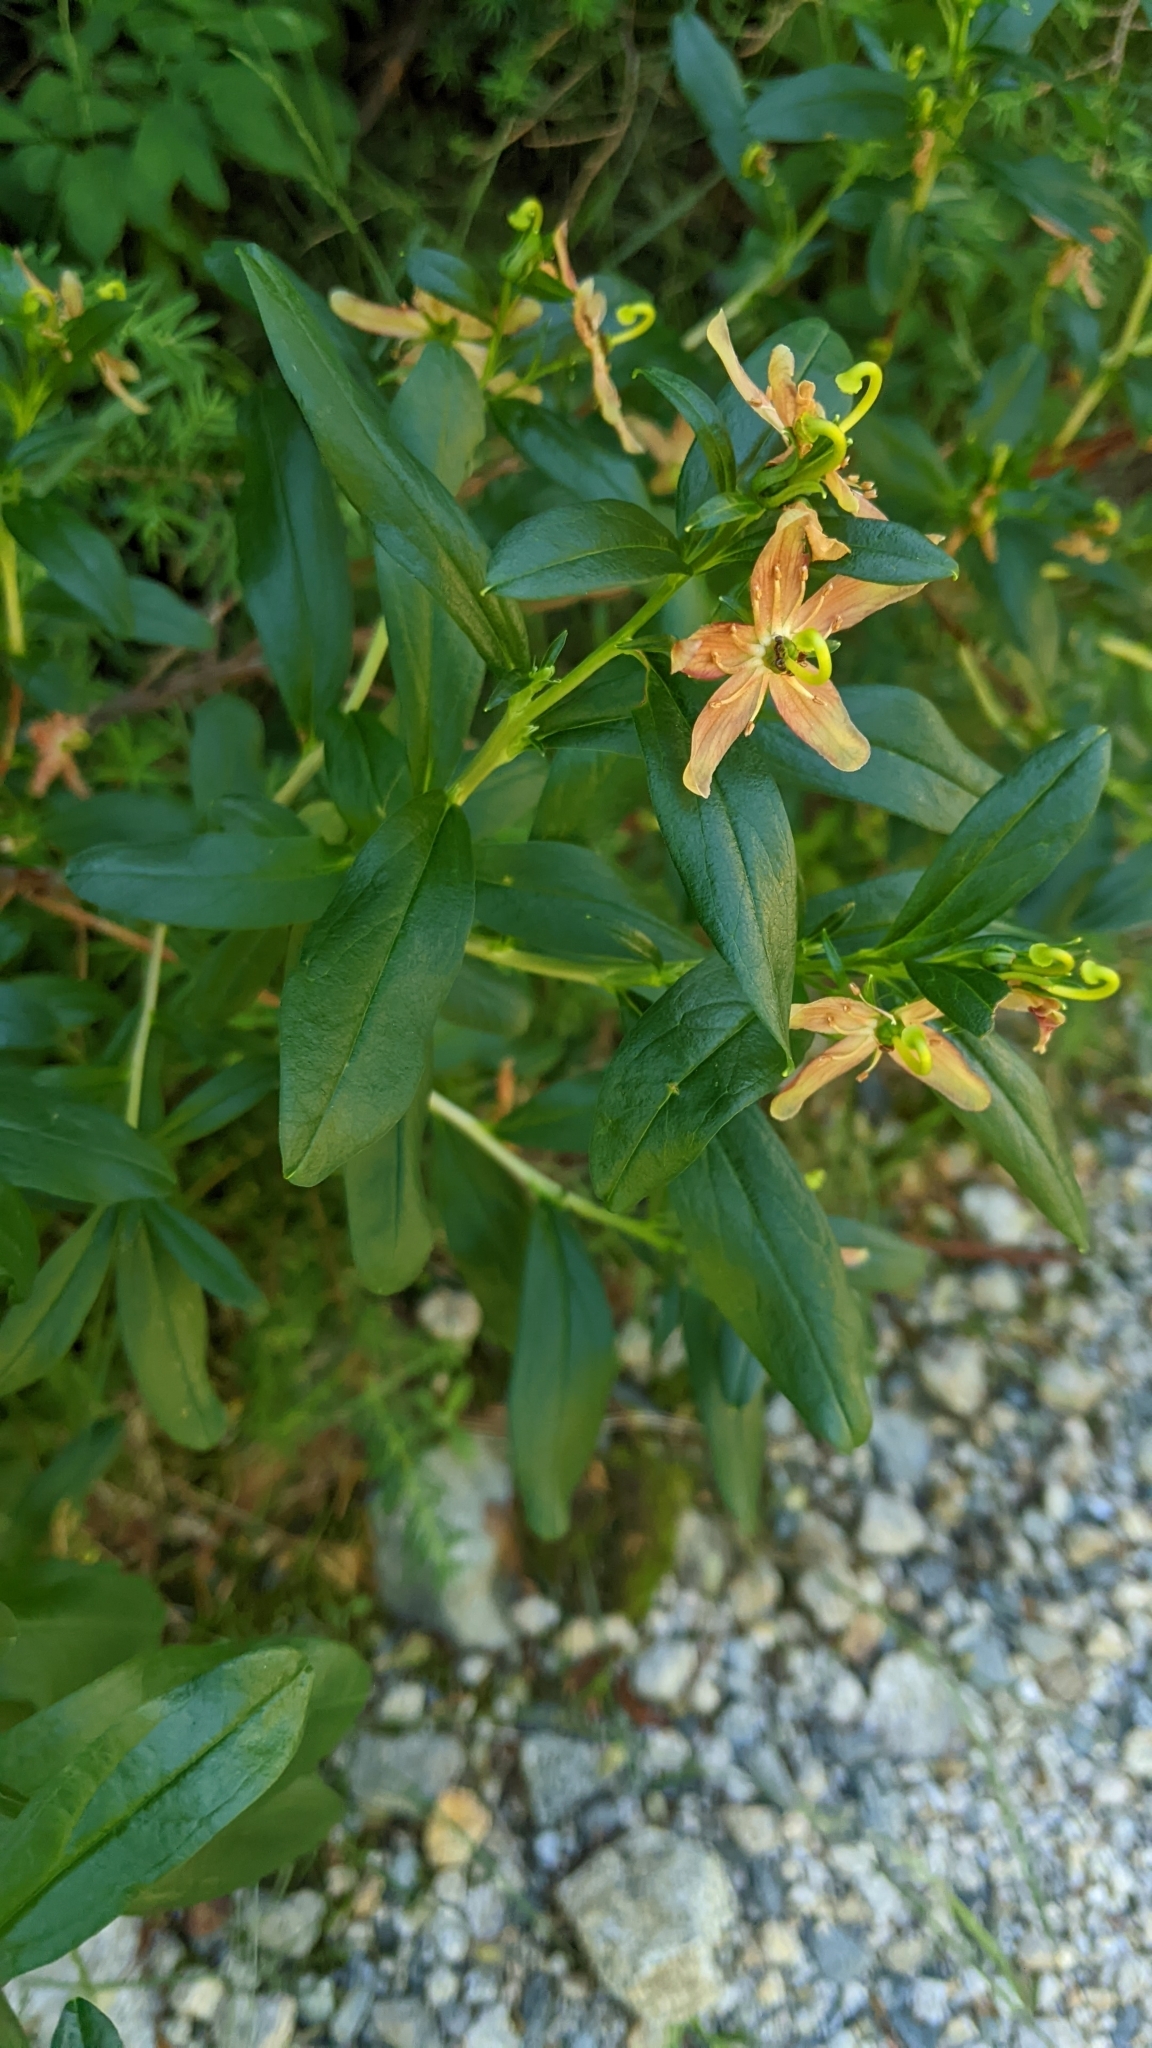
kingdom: Plantae
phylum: Tracheophyta
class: Magnoliopsida
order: Ericales
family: Ericaceae
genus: Elliottia
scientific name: Elliottia pyroliflora
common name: Copperbush
